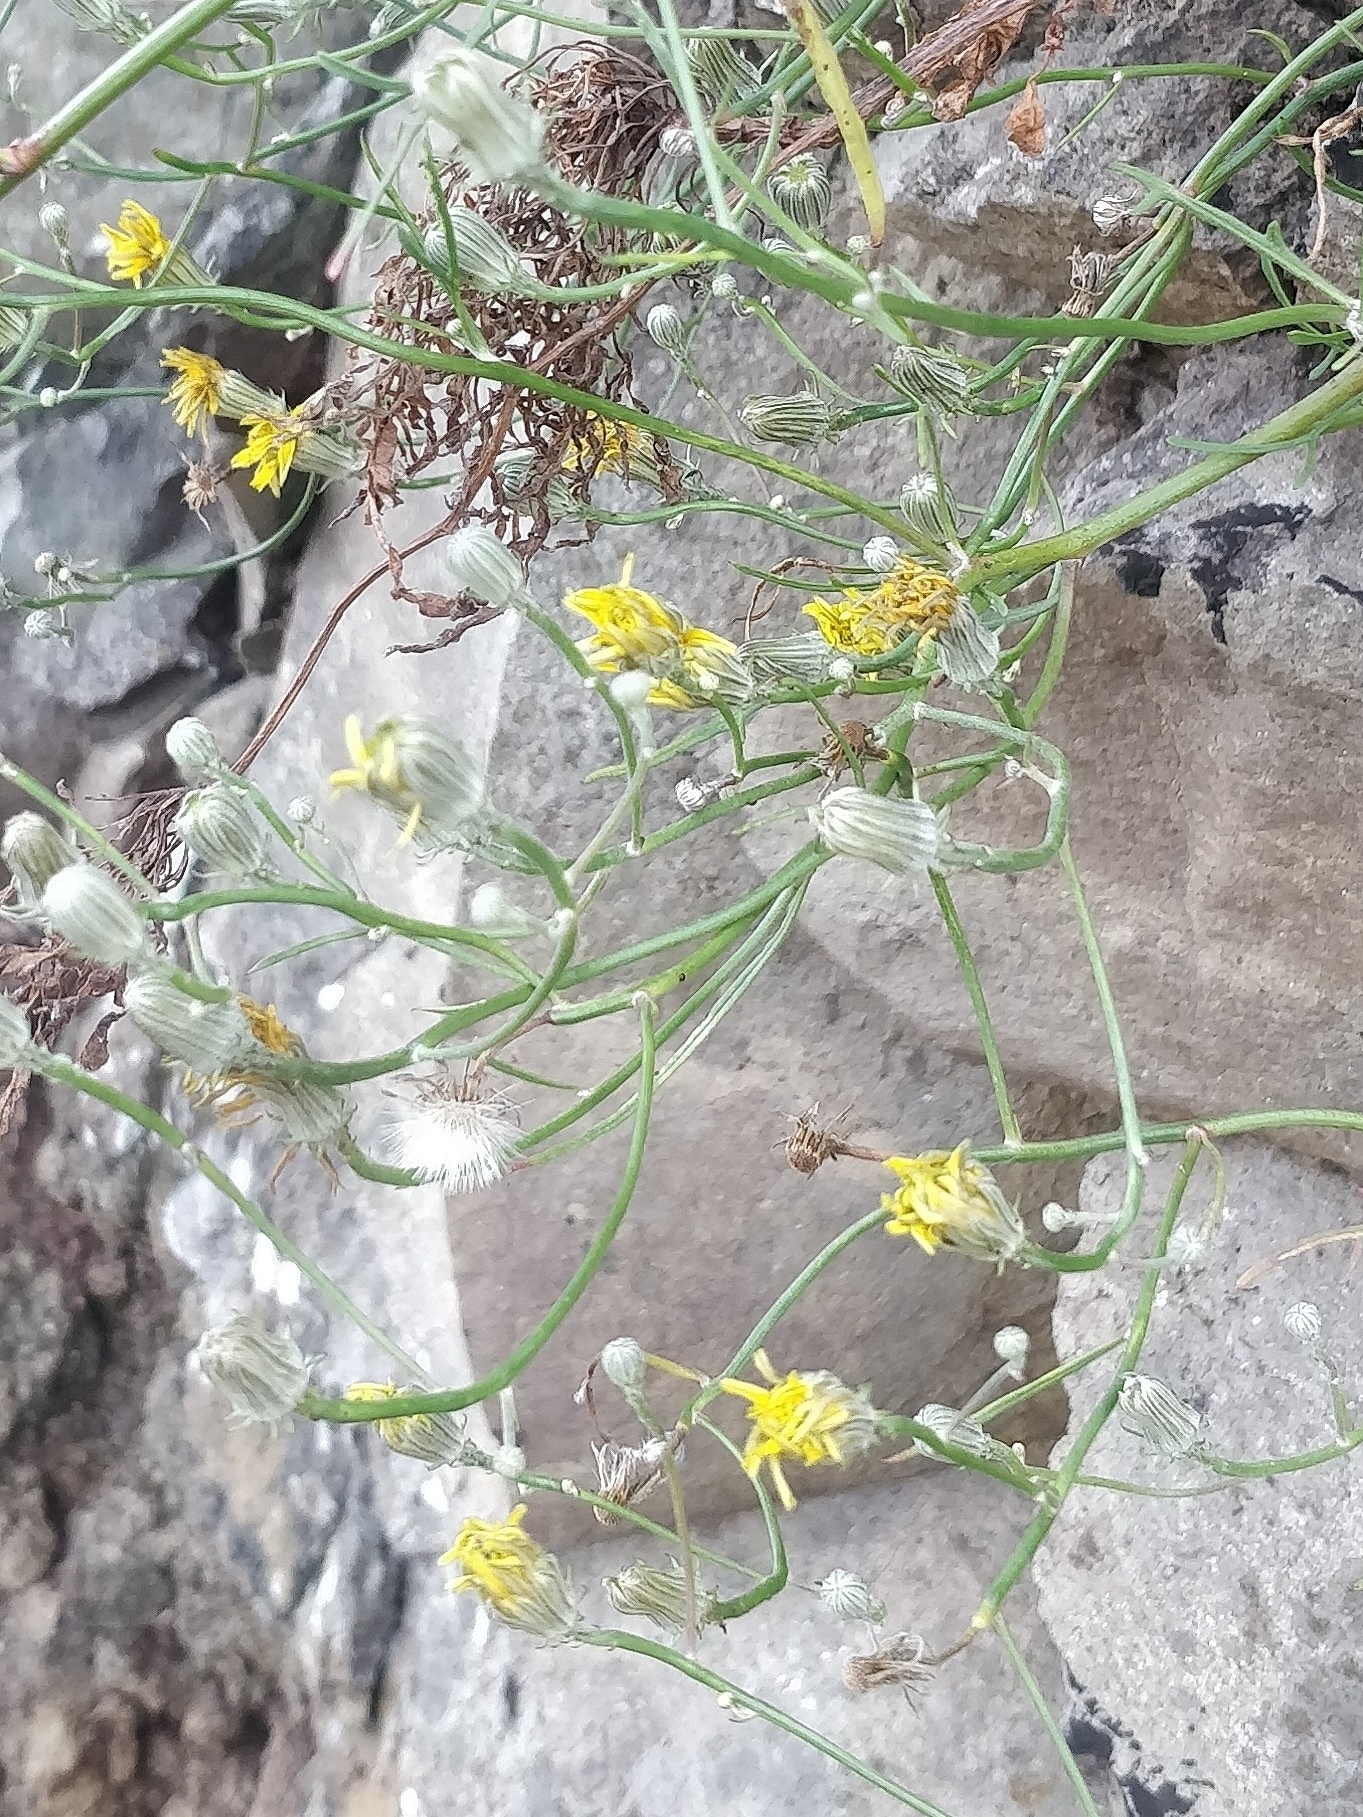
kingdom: Plantae
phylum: Tracheophyta
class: Magnoliopsida
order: Asterales
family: Asteraceae
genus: Tolpis
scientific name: Tolpis succulenta
